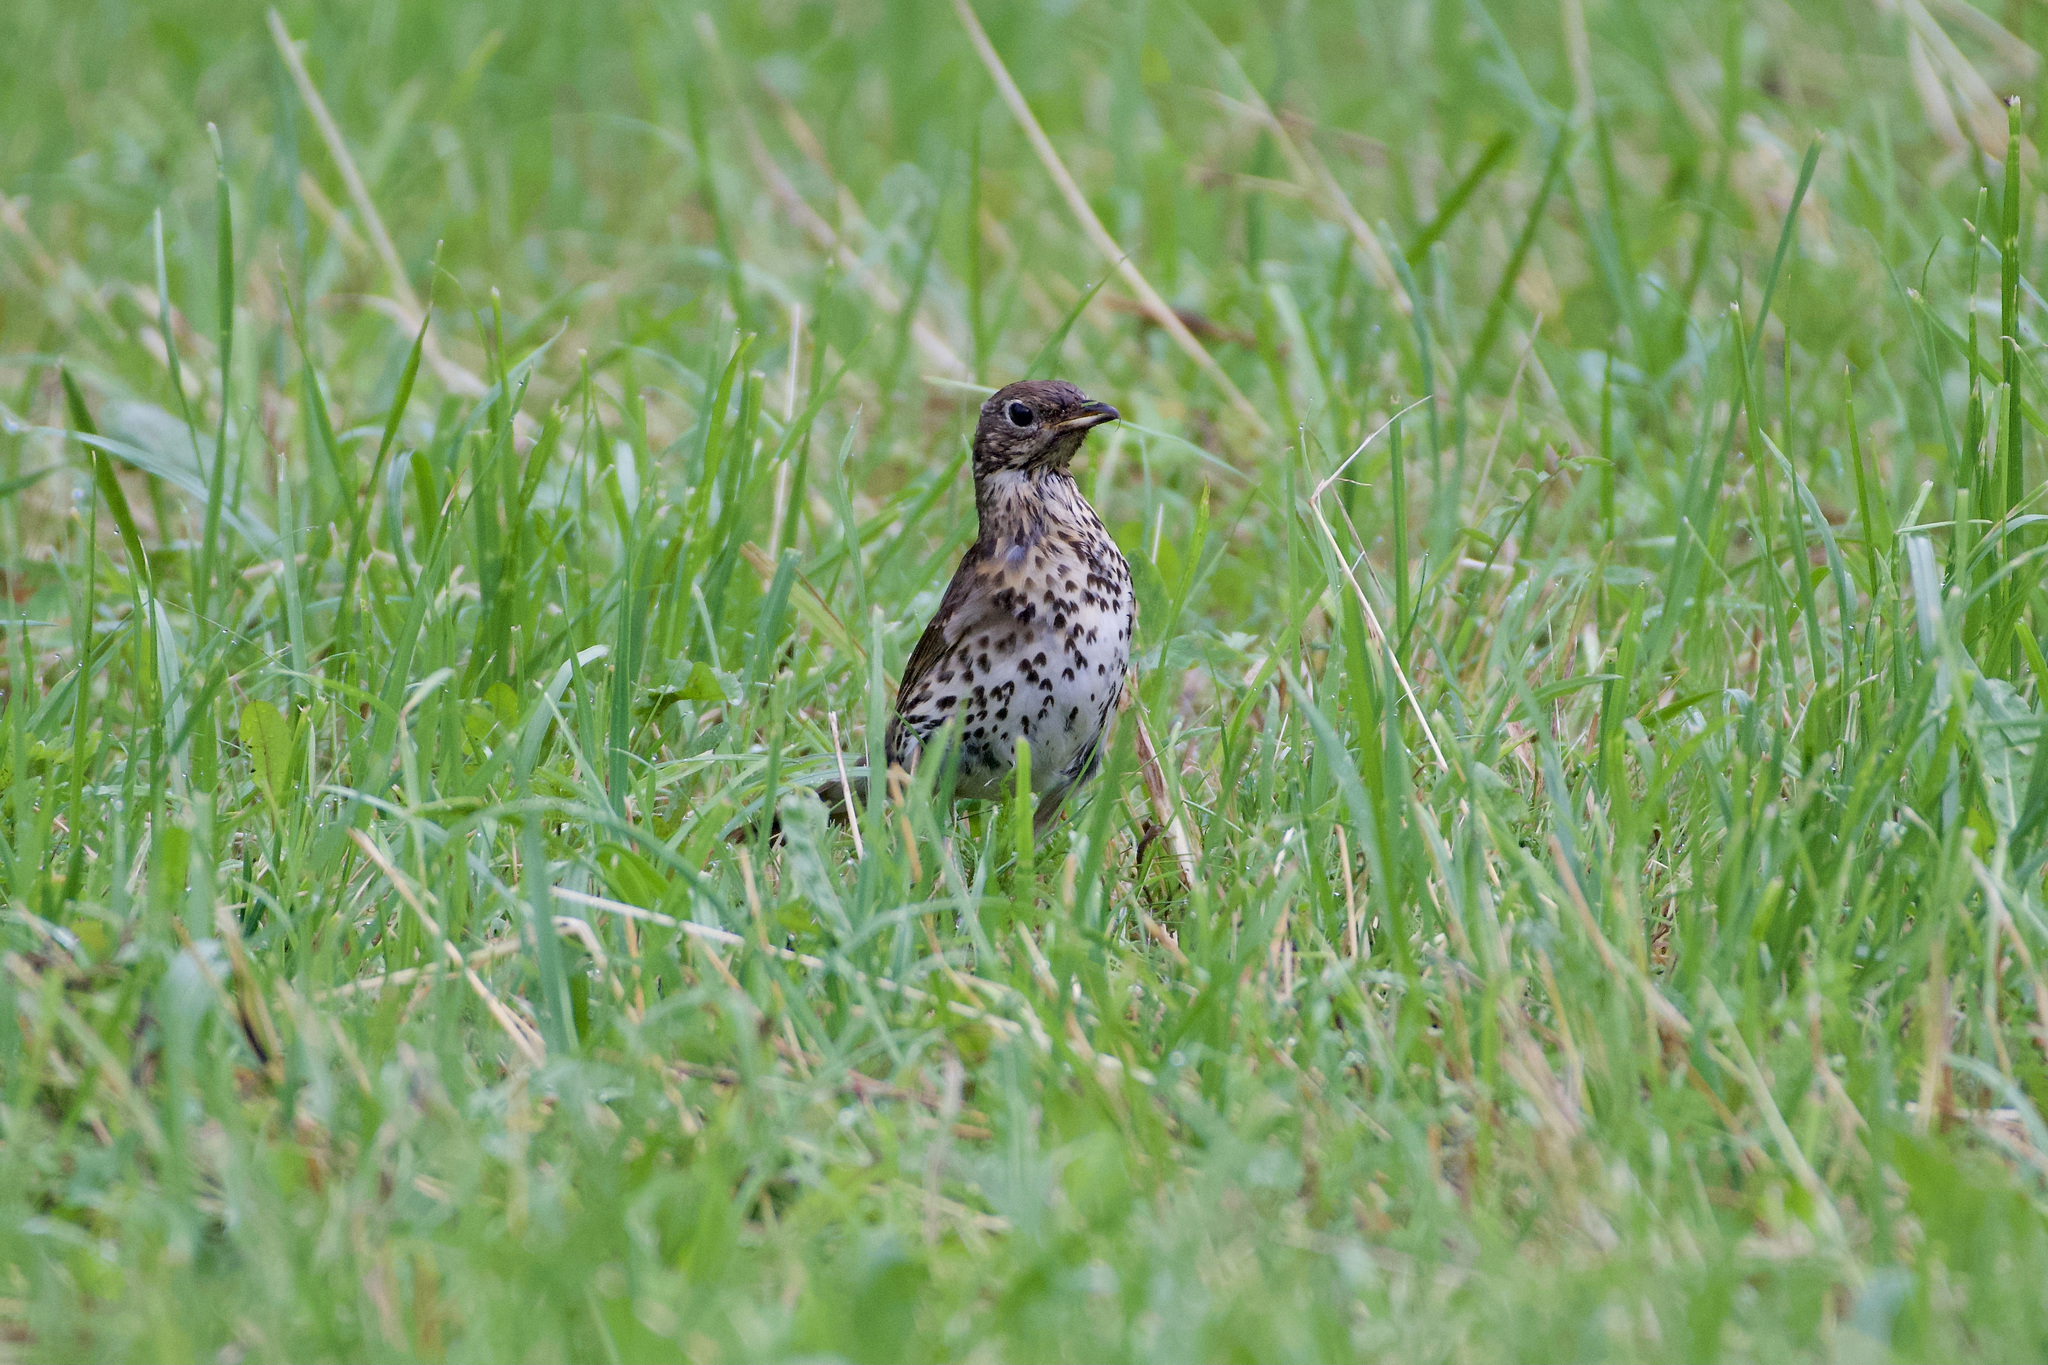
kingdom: Animalia
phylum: Chordata
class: Aves
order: Passeriformes
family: Turdidae
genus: Turdus
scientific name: Turdus philomelos
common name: Song thrush
